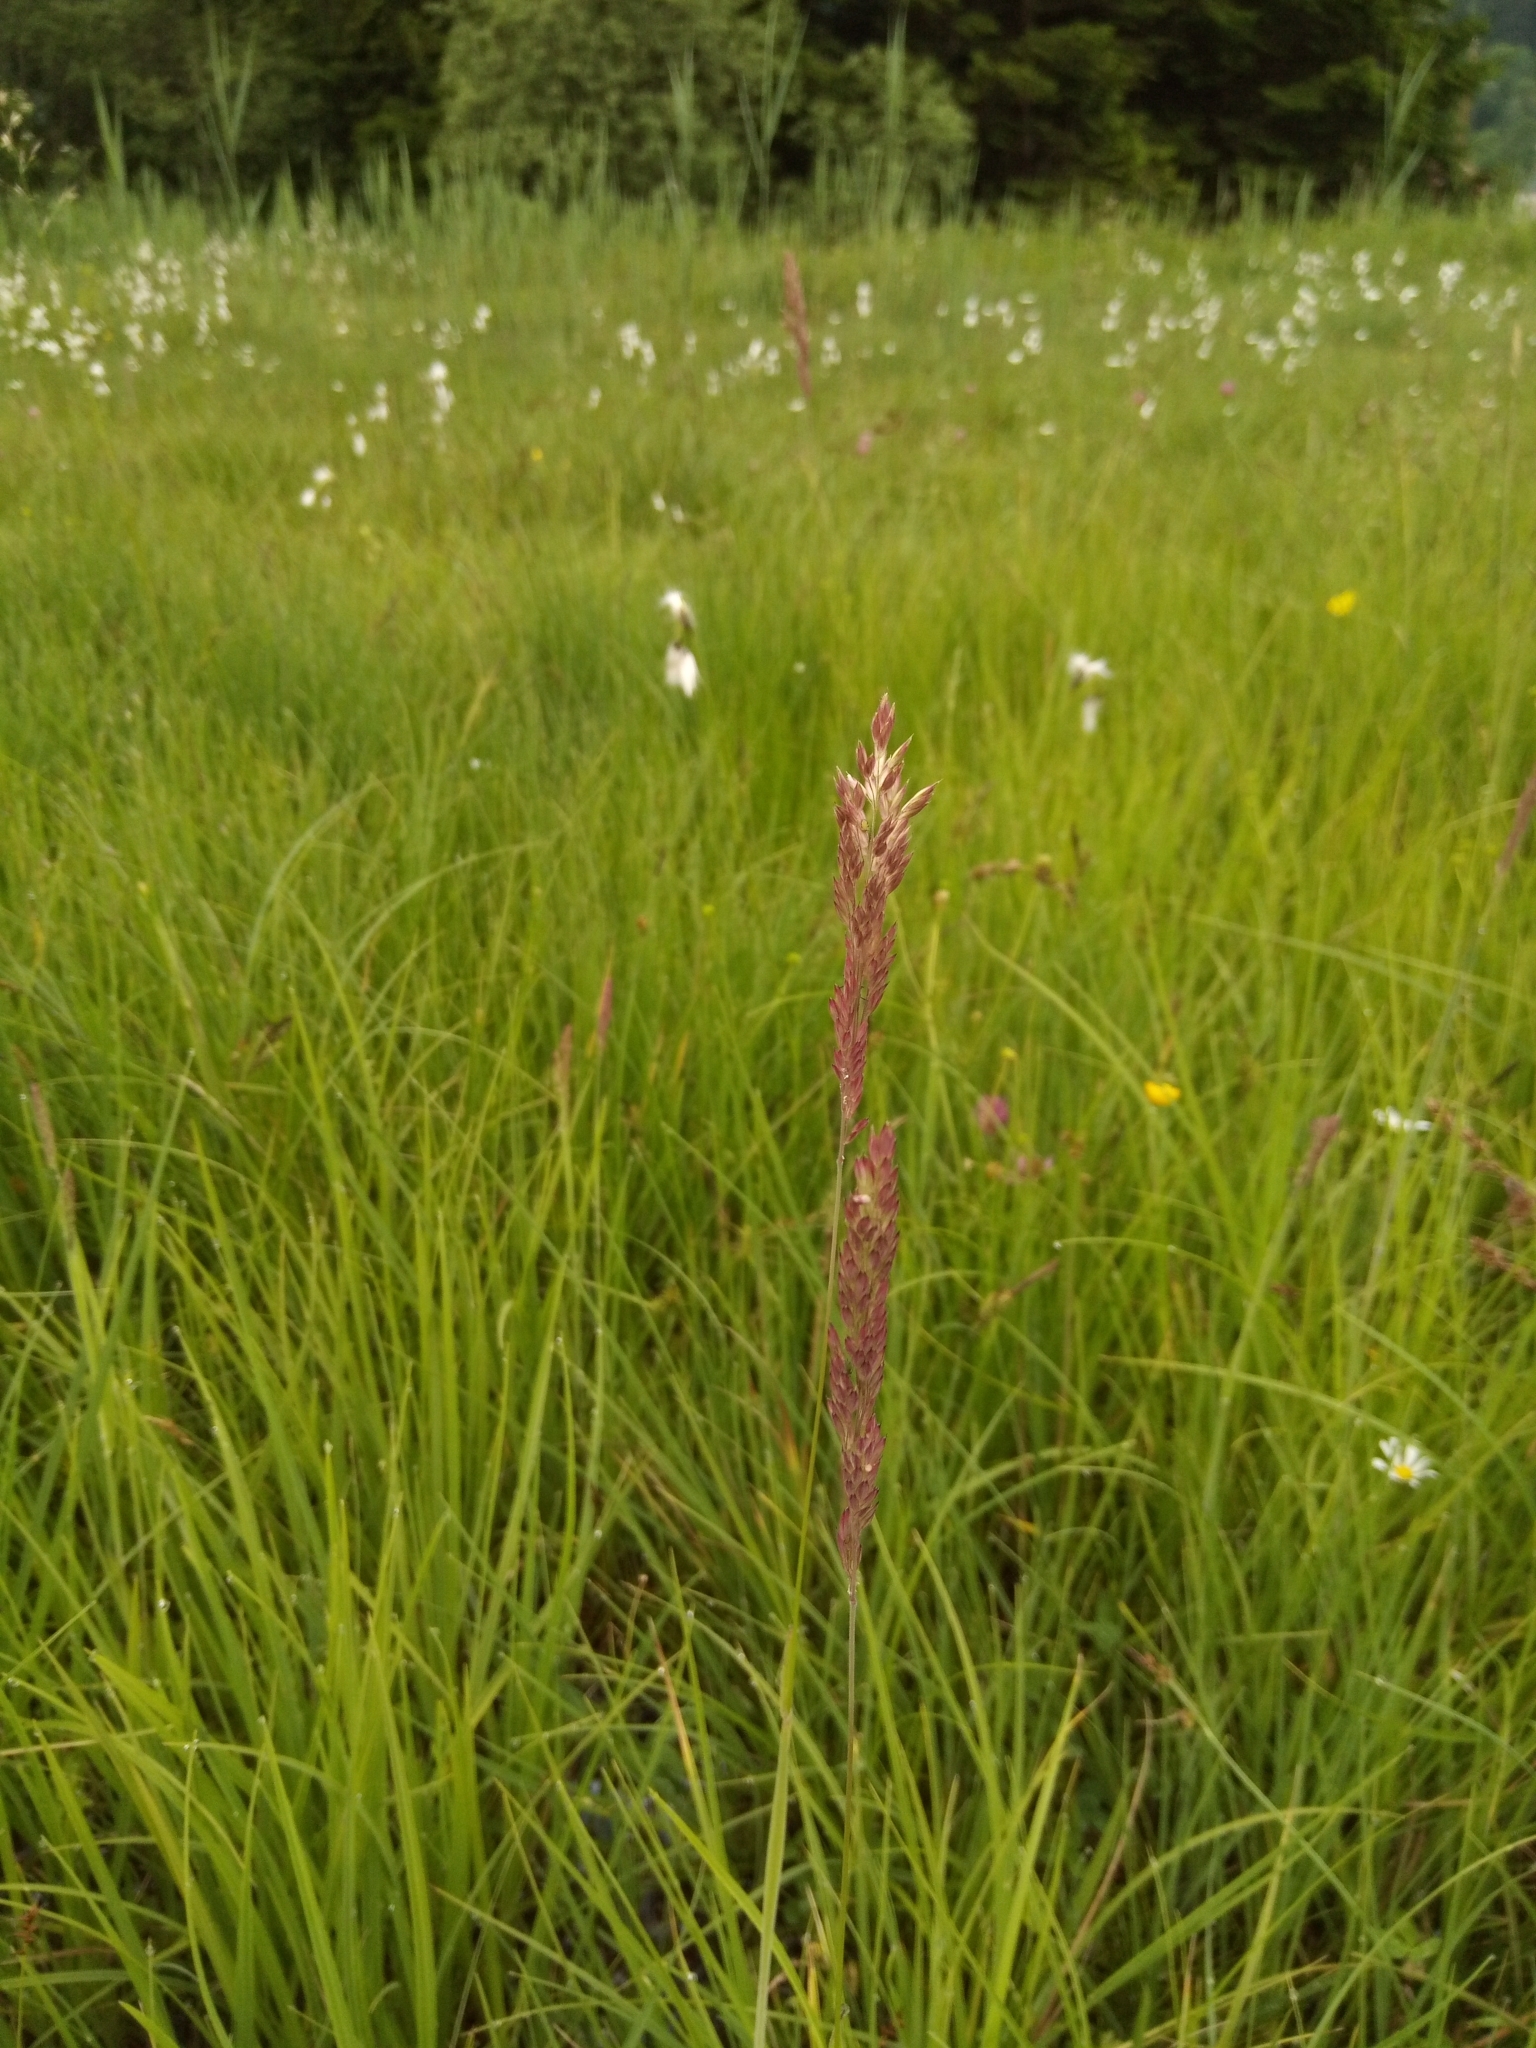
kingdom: Plantae
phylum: Tracheophyta
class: Liliopsida
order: Poales
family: Poaceae
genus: Holcus
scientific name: Holcus lanatus
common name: Yorkshire-fog
